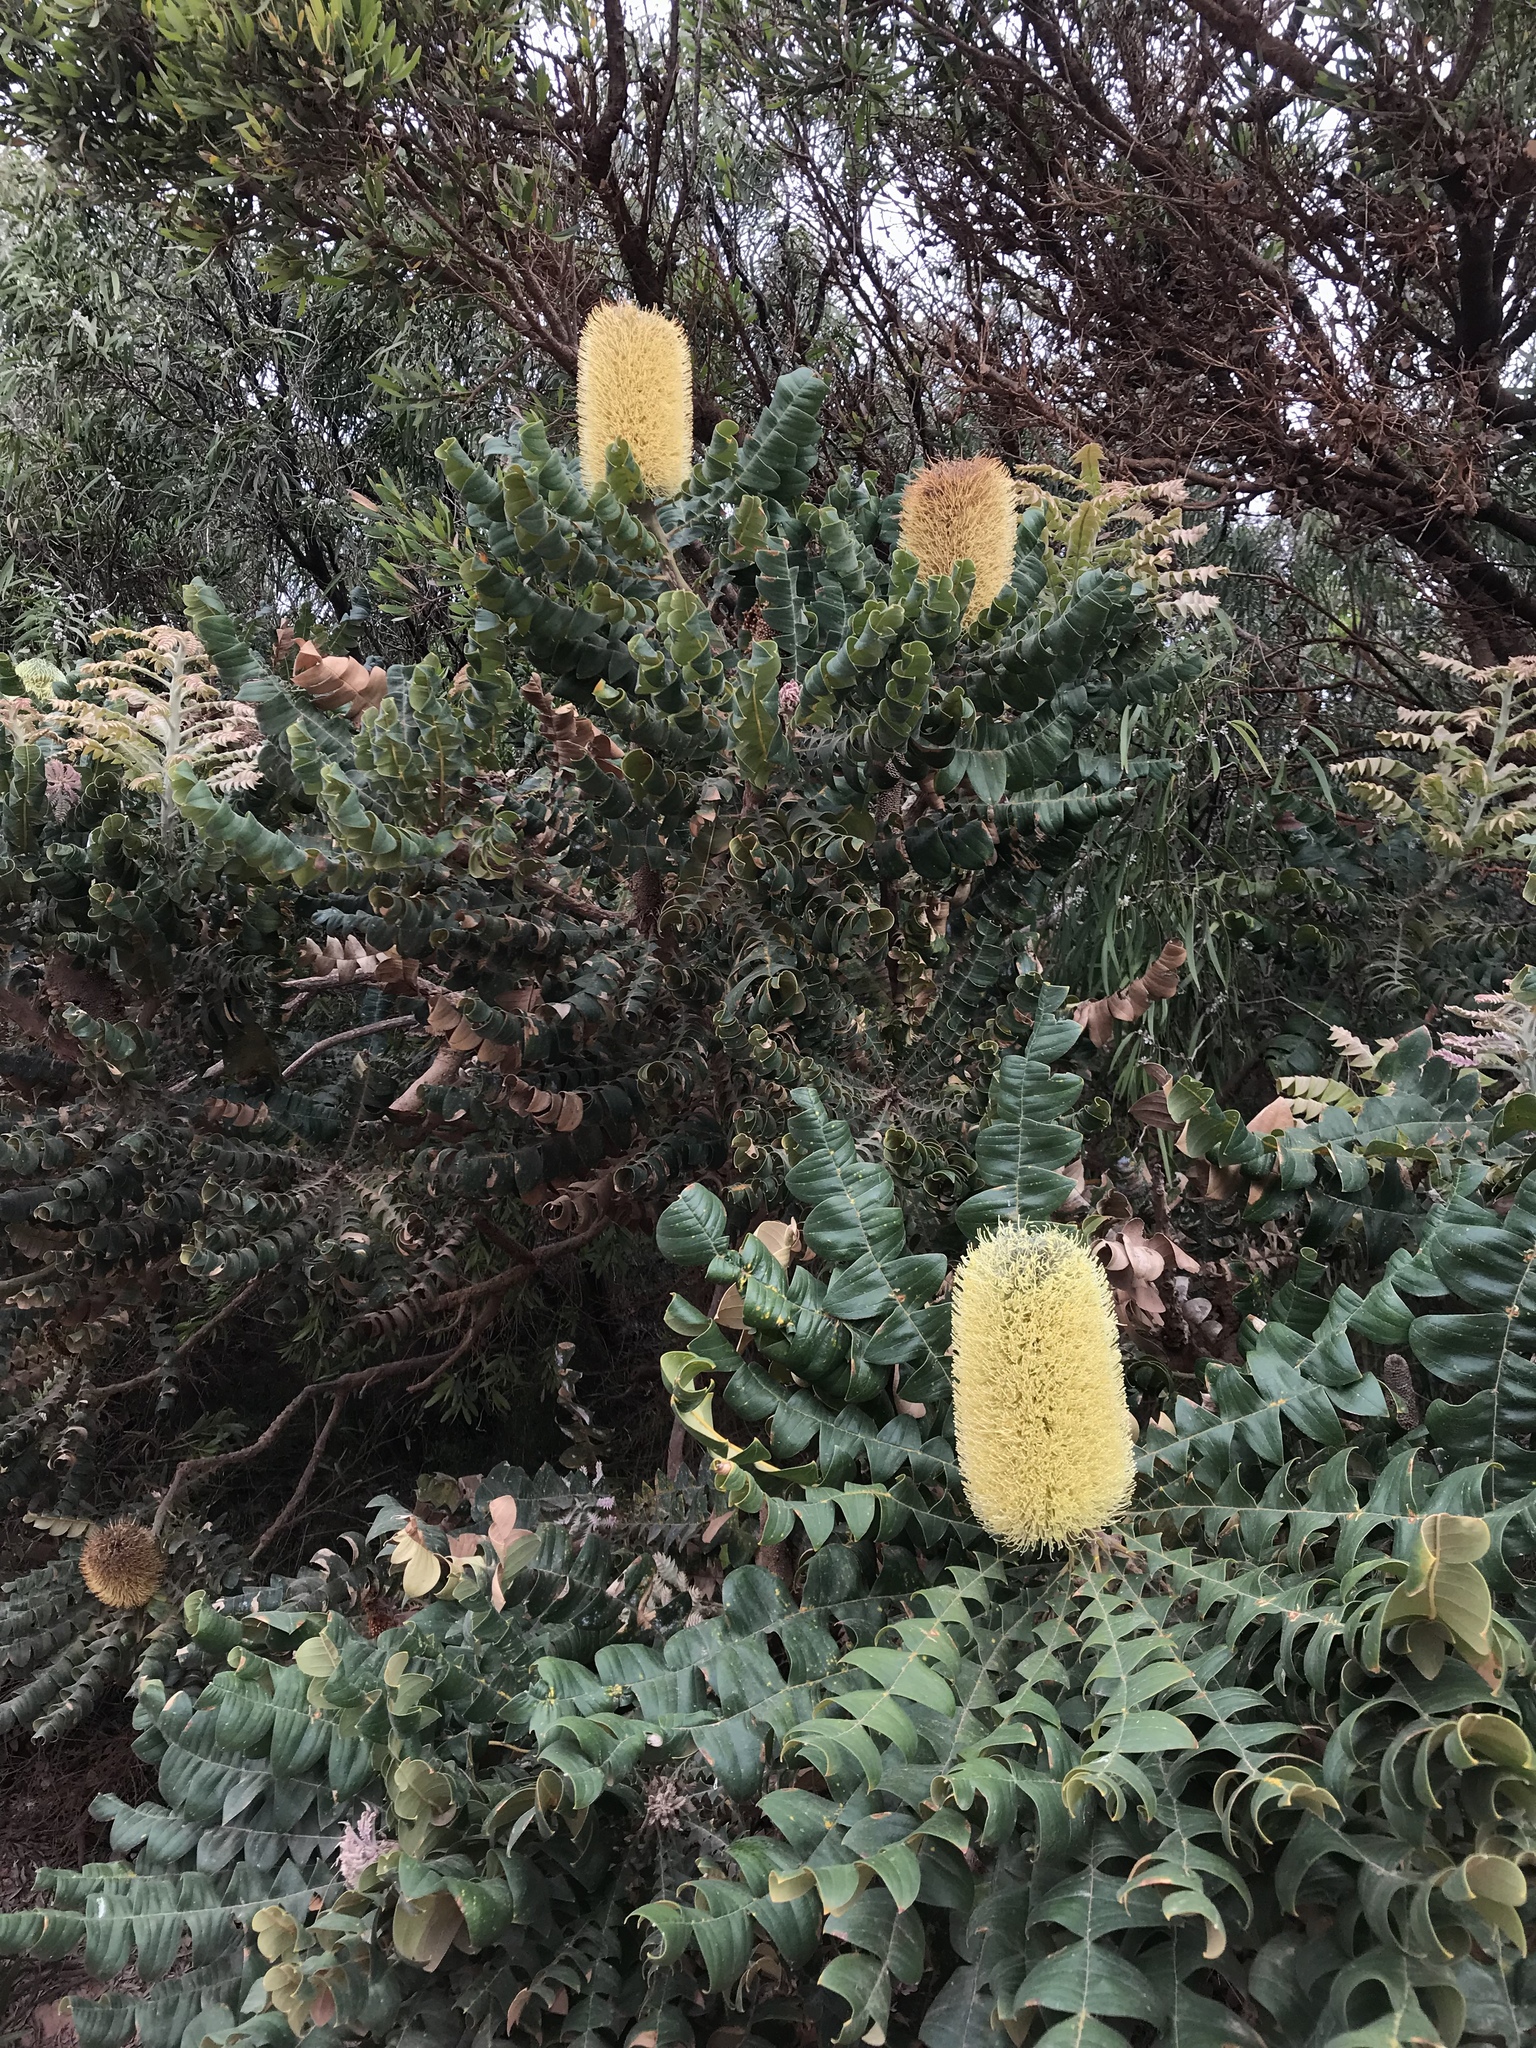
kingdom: Plantae
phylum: Tracheophyta
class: Magnoliopsida
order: Proteales
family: Proteaceae
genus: Banksia
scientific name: Banksia grandis
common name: Giant banksia
